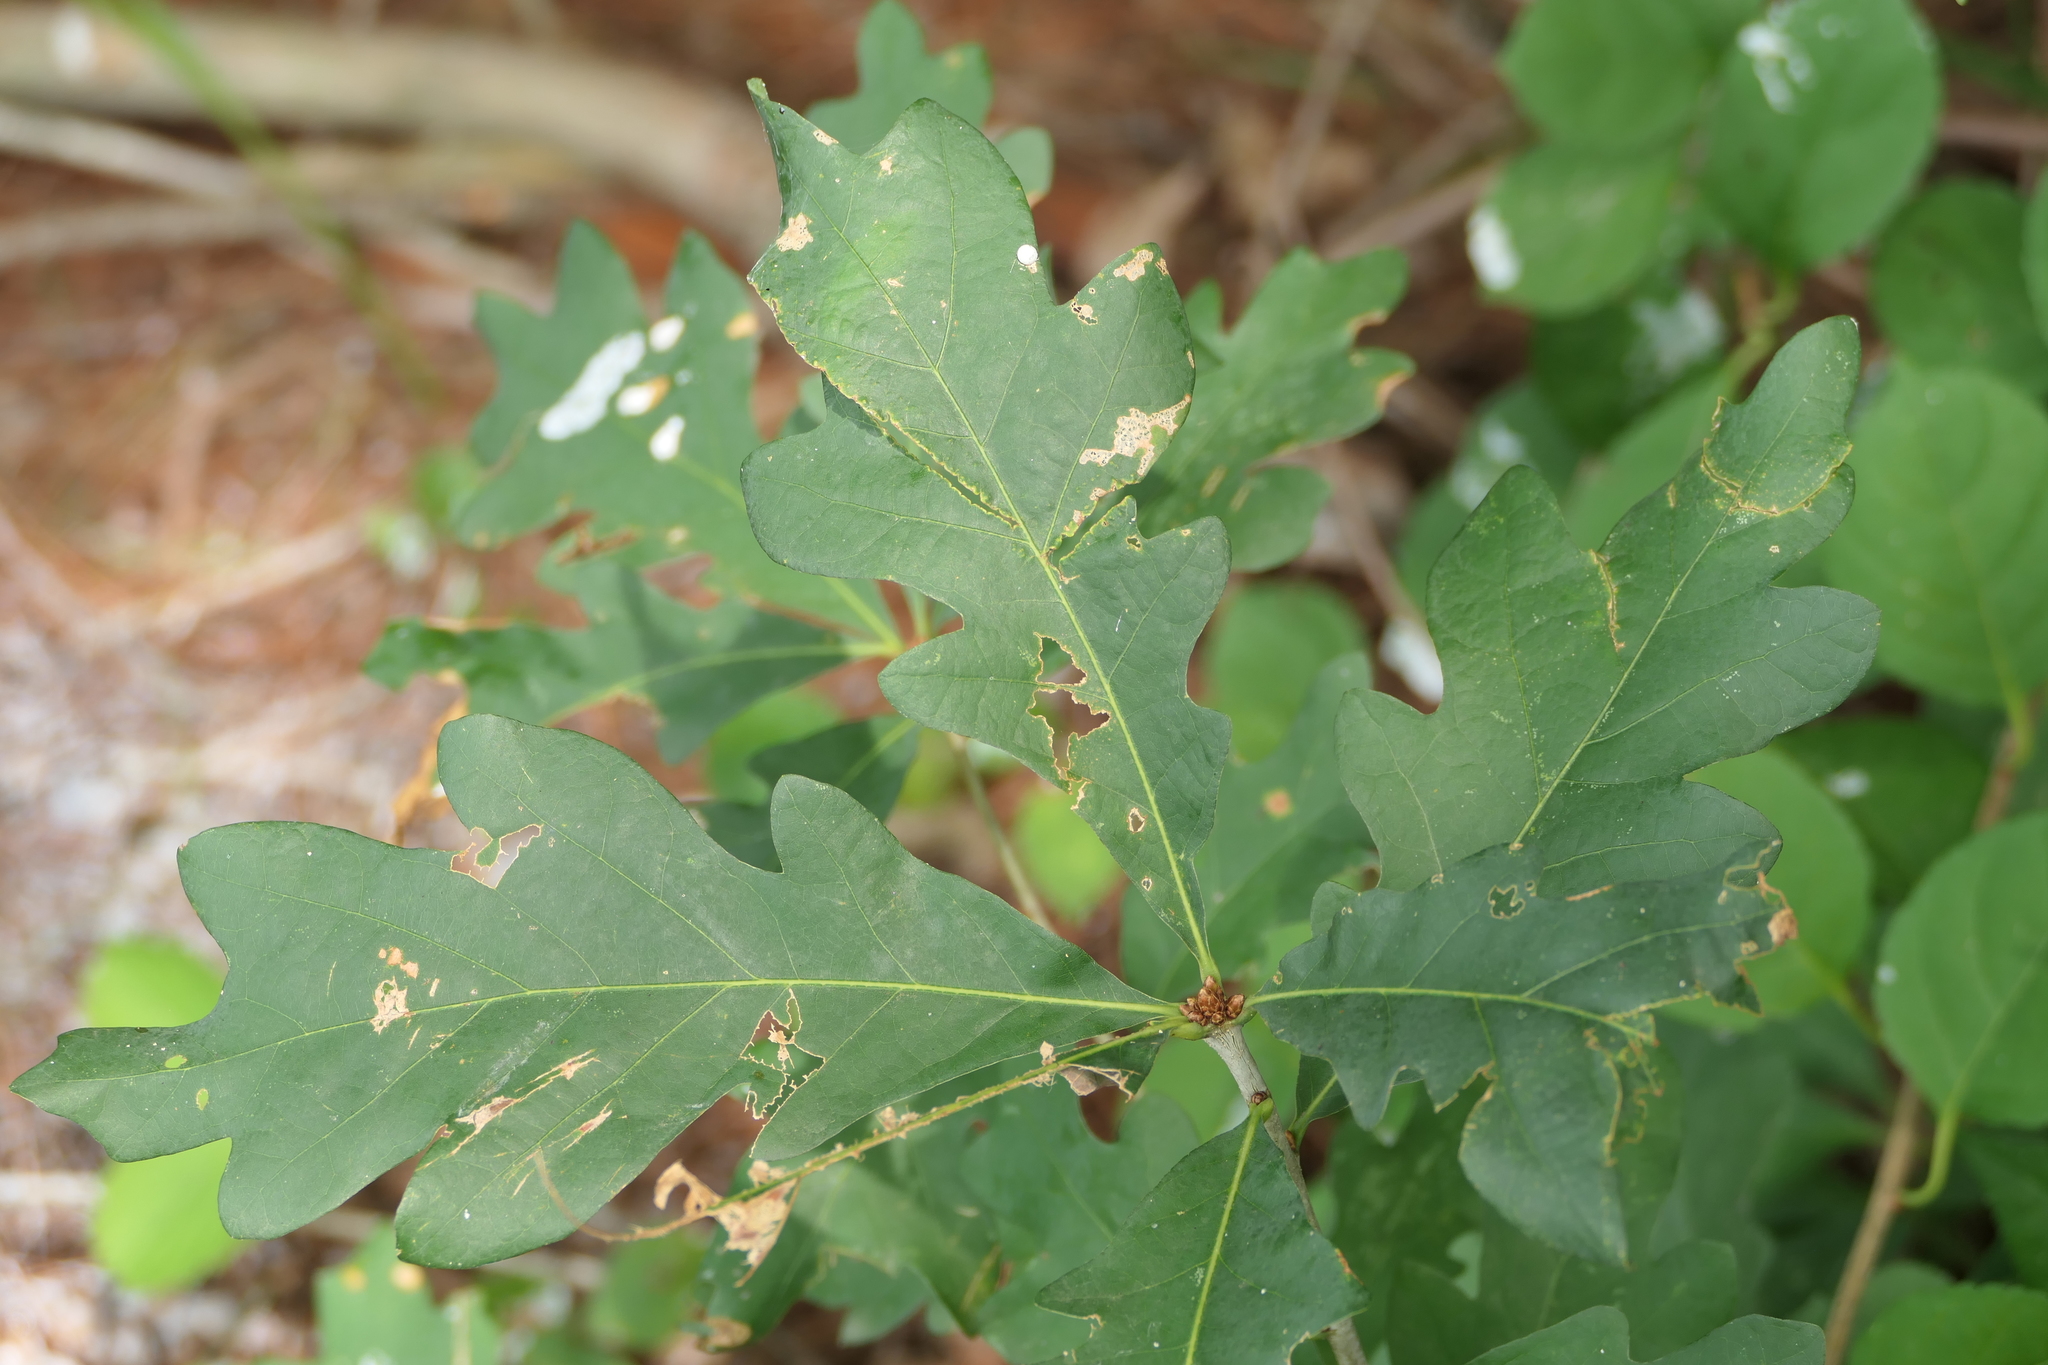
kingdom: Plantae
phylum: Tracheophyta
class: Magnoliopsida
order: Fagales
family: Fagaceae
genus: Quercus
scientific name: Quercus alba
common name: White oak
